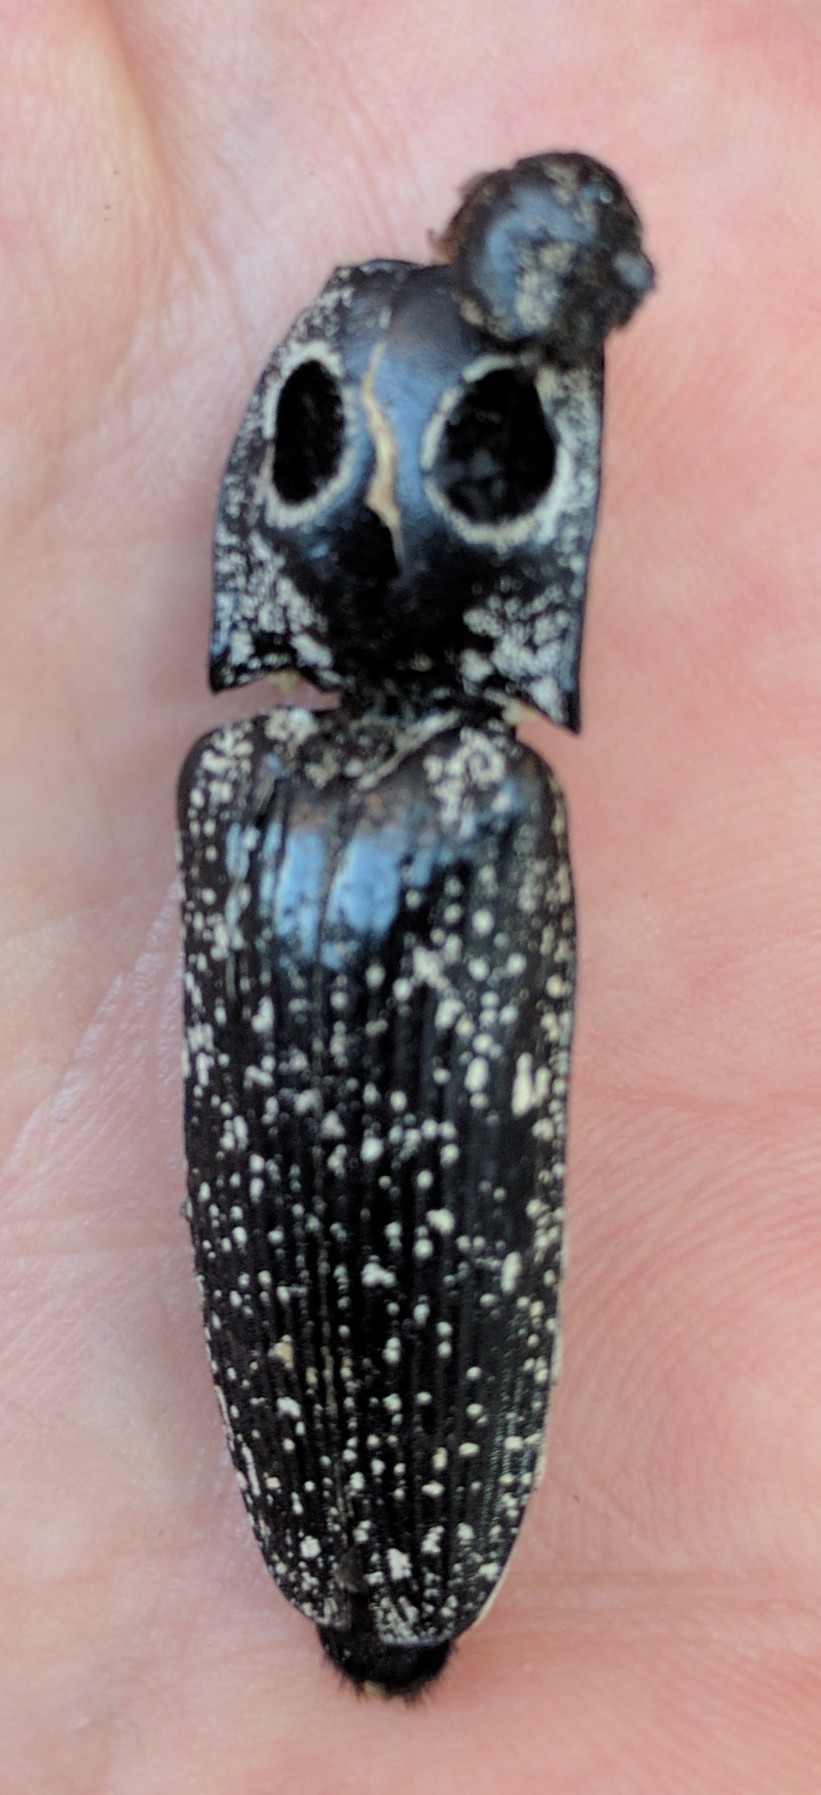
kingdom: Animalia
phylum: Arthropoda
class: Insecta
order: Coleoptera
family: Elateridae
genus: Alaus
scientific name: Alaus oculatus
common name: Eastern eyed click beetle
